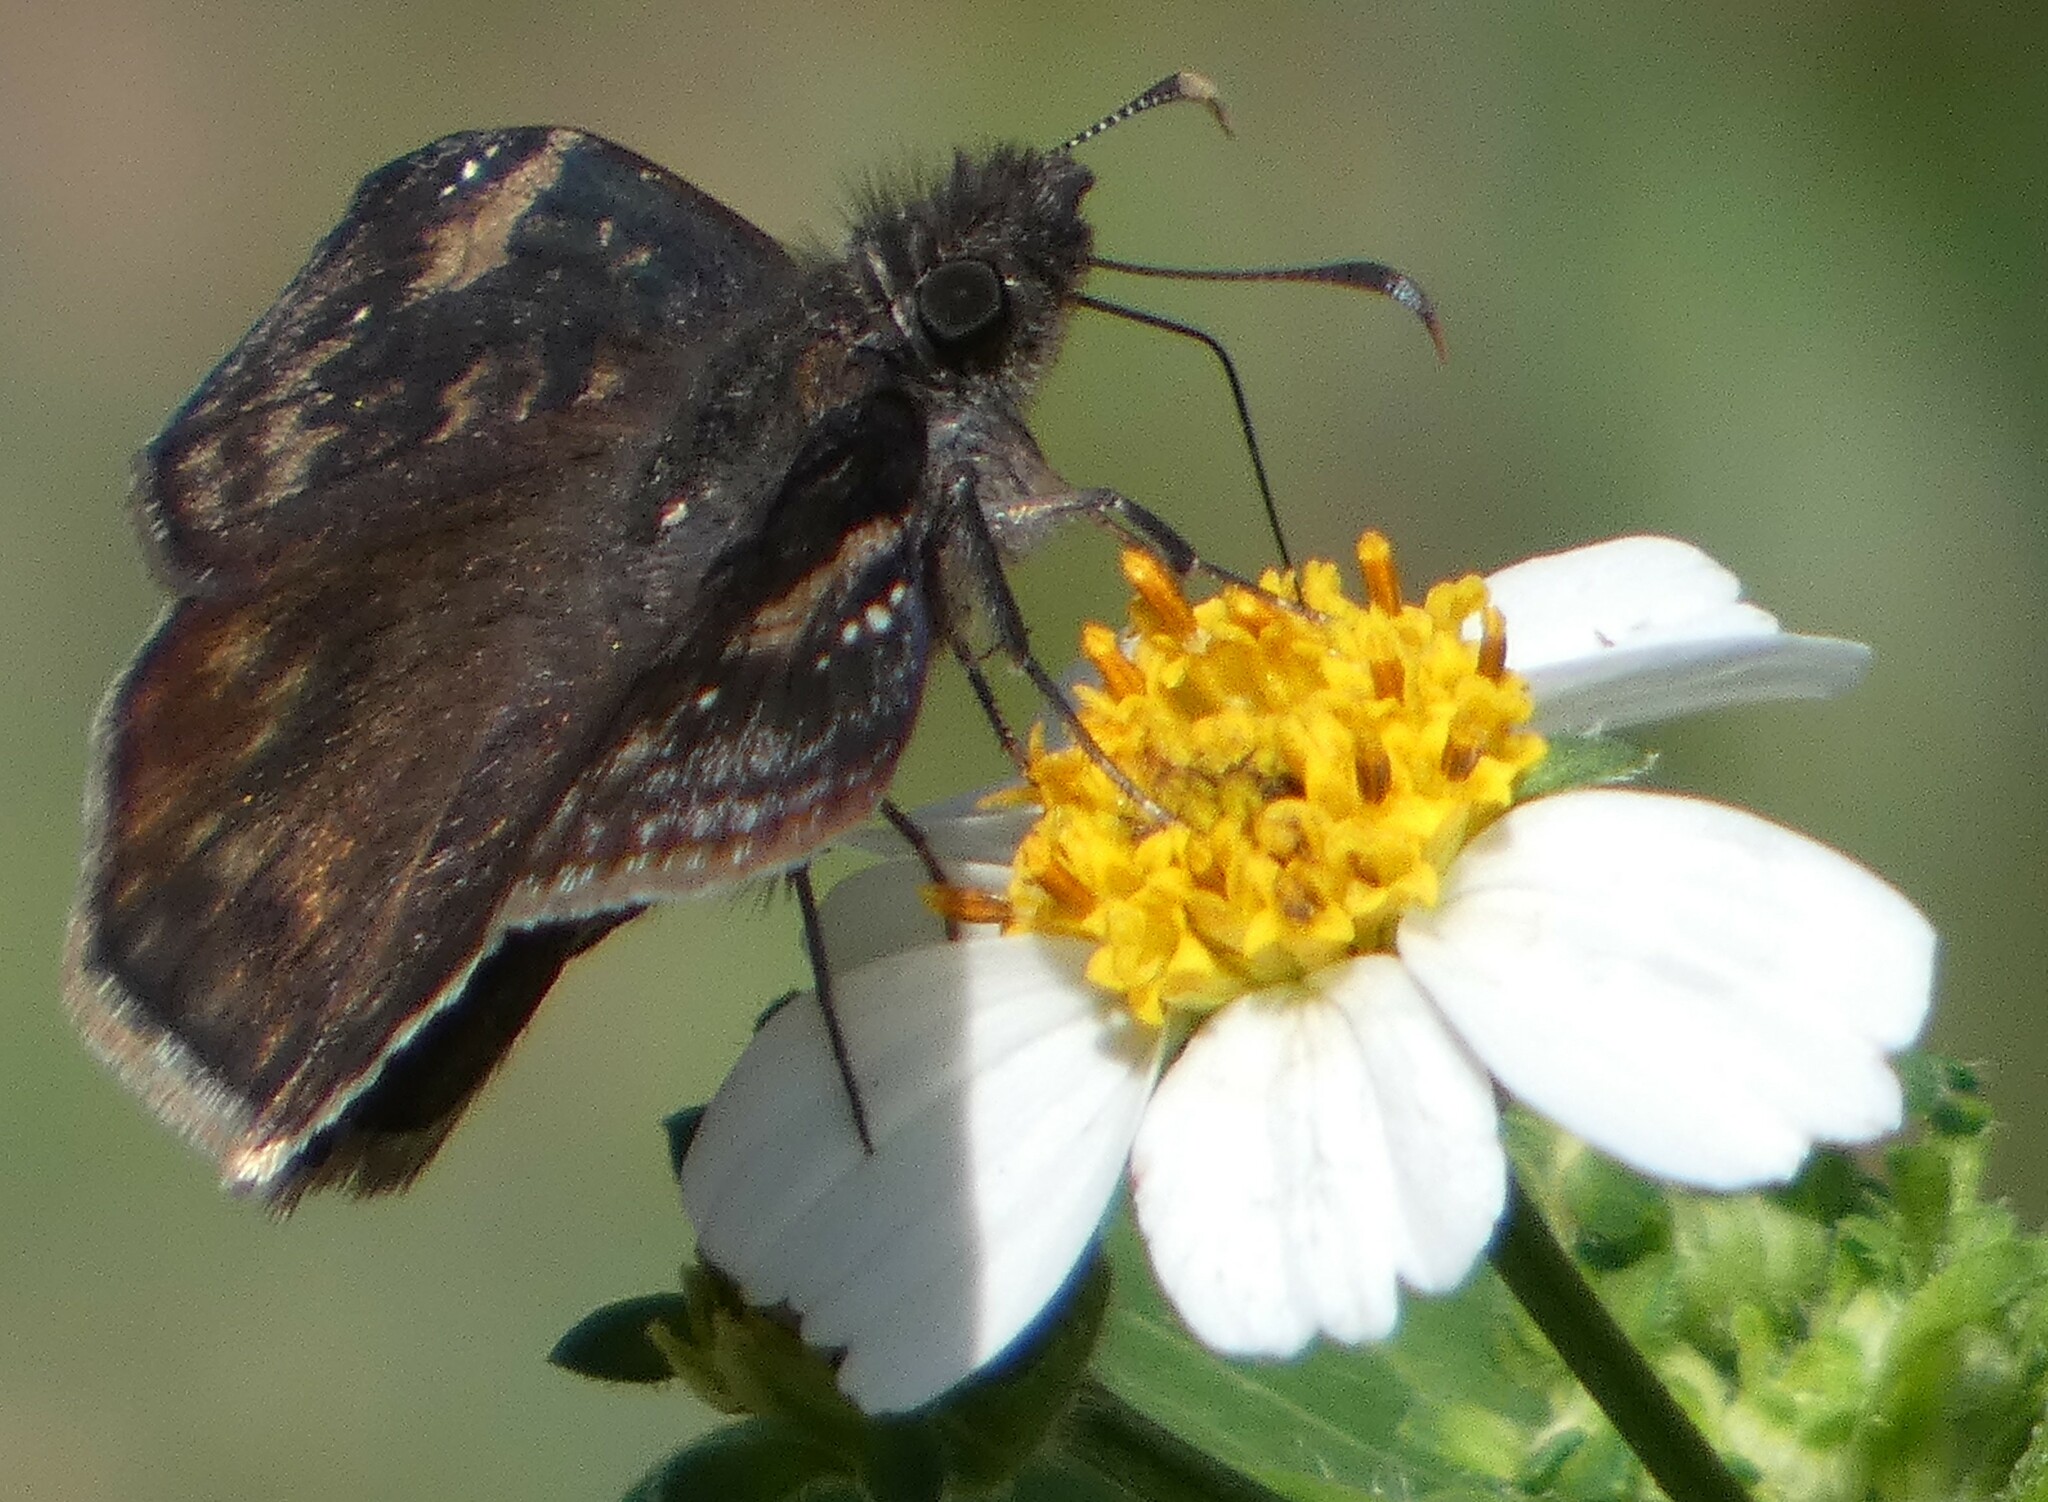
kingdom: Animalia
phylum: Arthropoda
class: Insecta
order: Lepidoptera
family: Hesperiidae
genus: Erynnis
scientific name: Erynnis zarucco
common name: Zarucco duskywing
